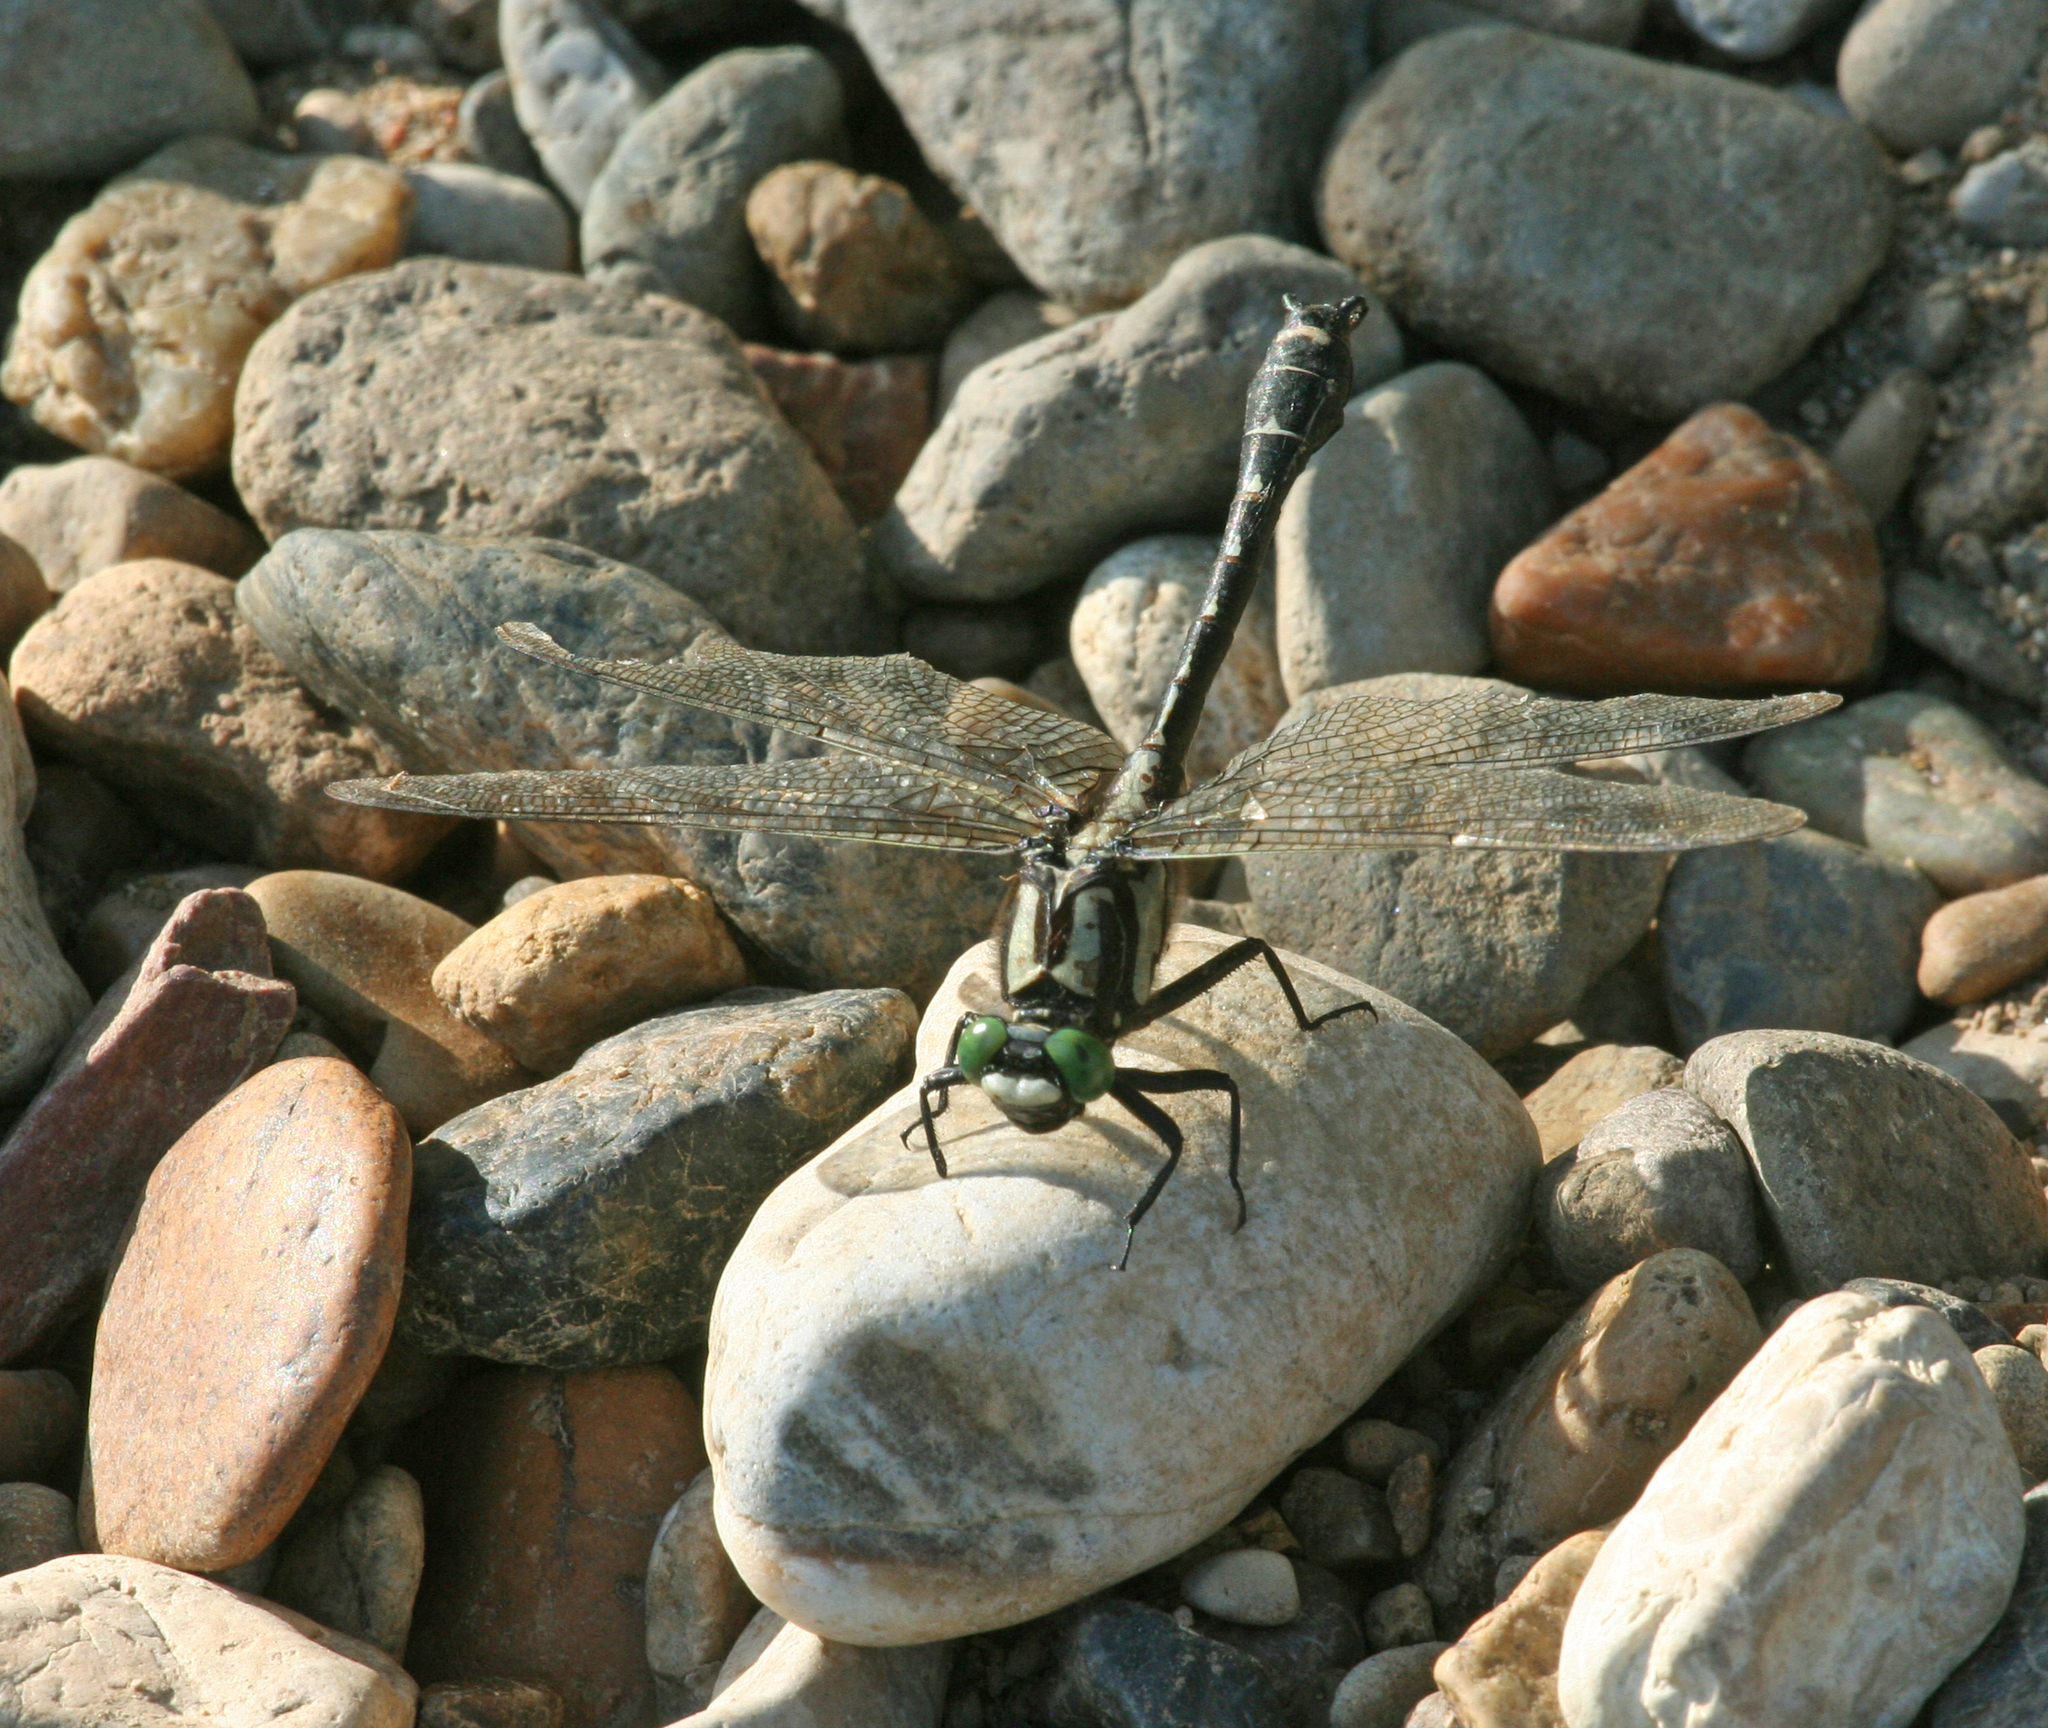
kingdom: Animalia
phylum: Arthropoda
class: Insecta
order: Odonata
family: Gomphidae
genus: Shaogomphus
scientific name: Shaogomphus postocularis
